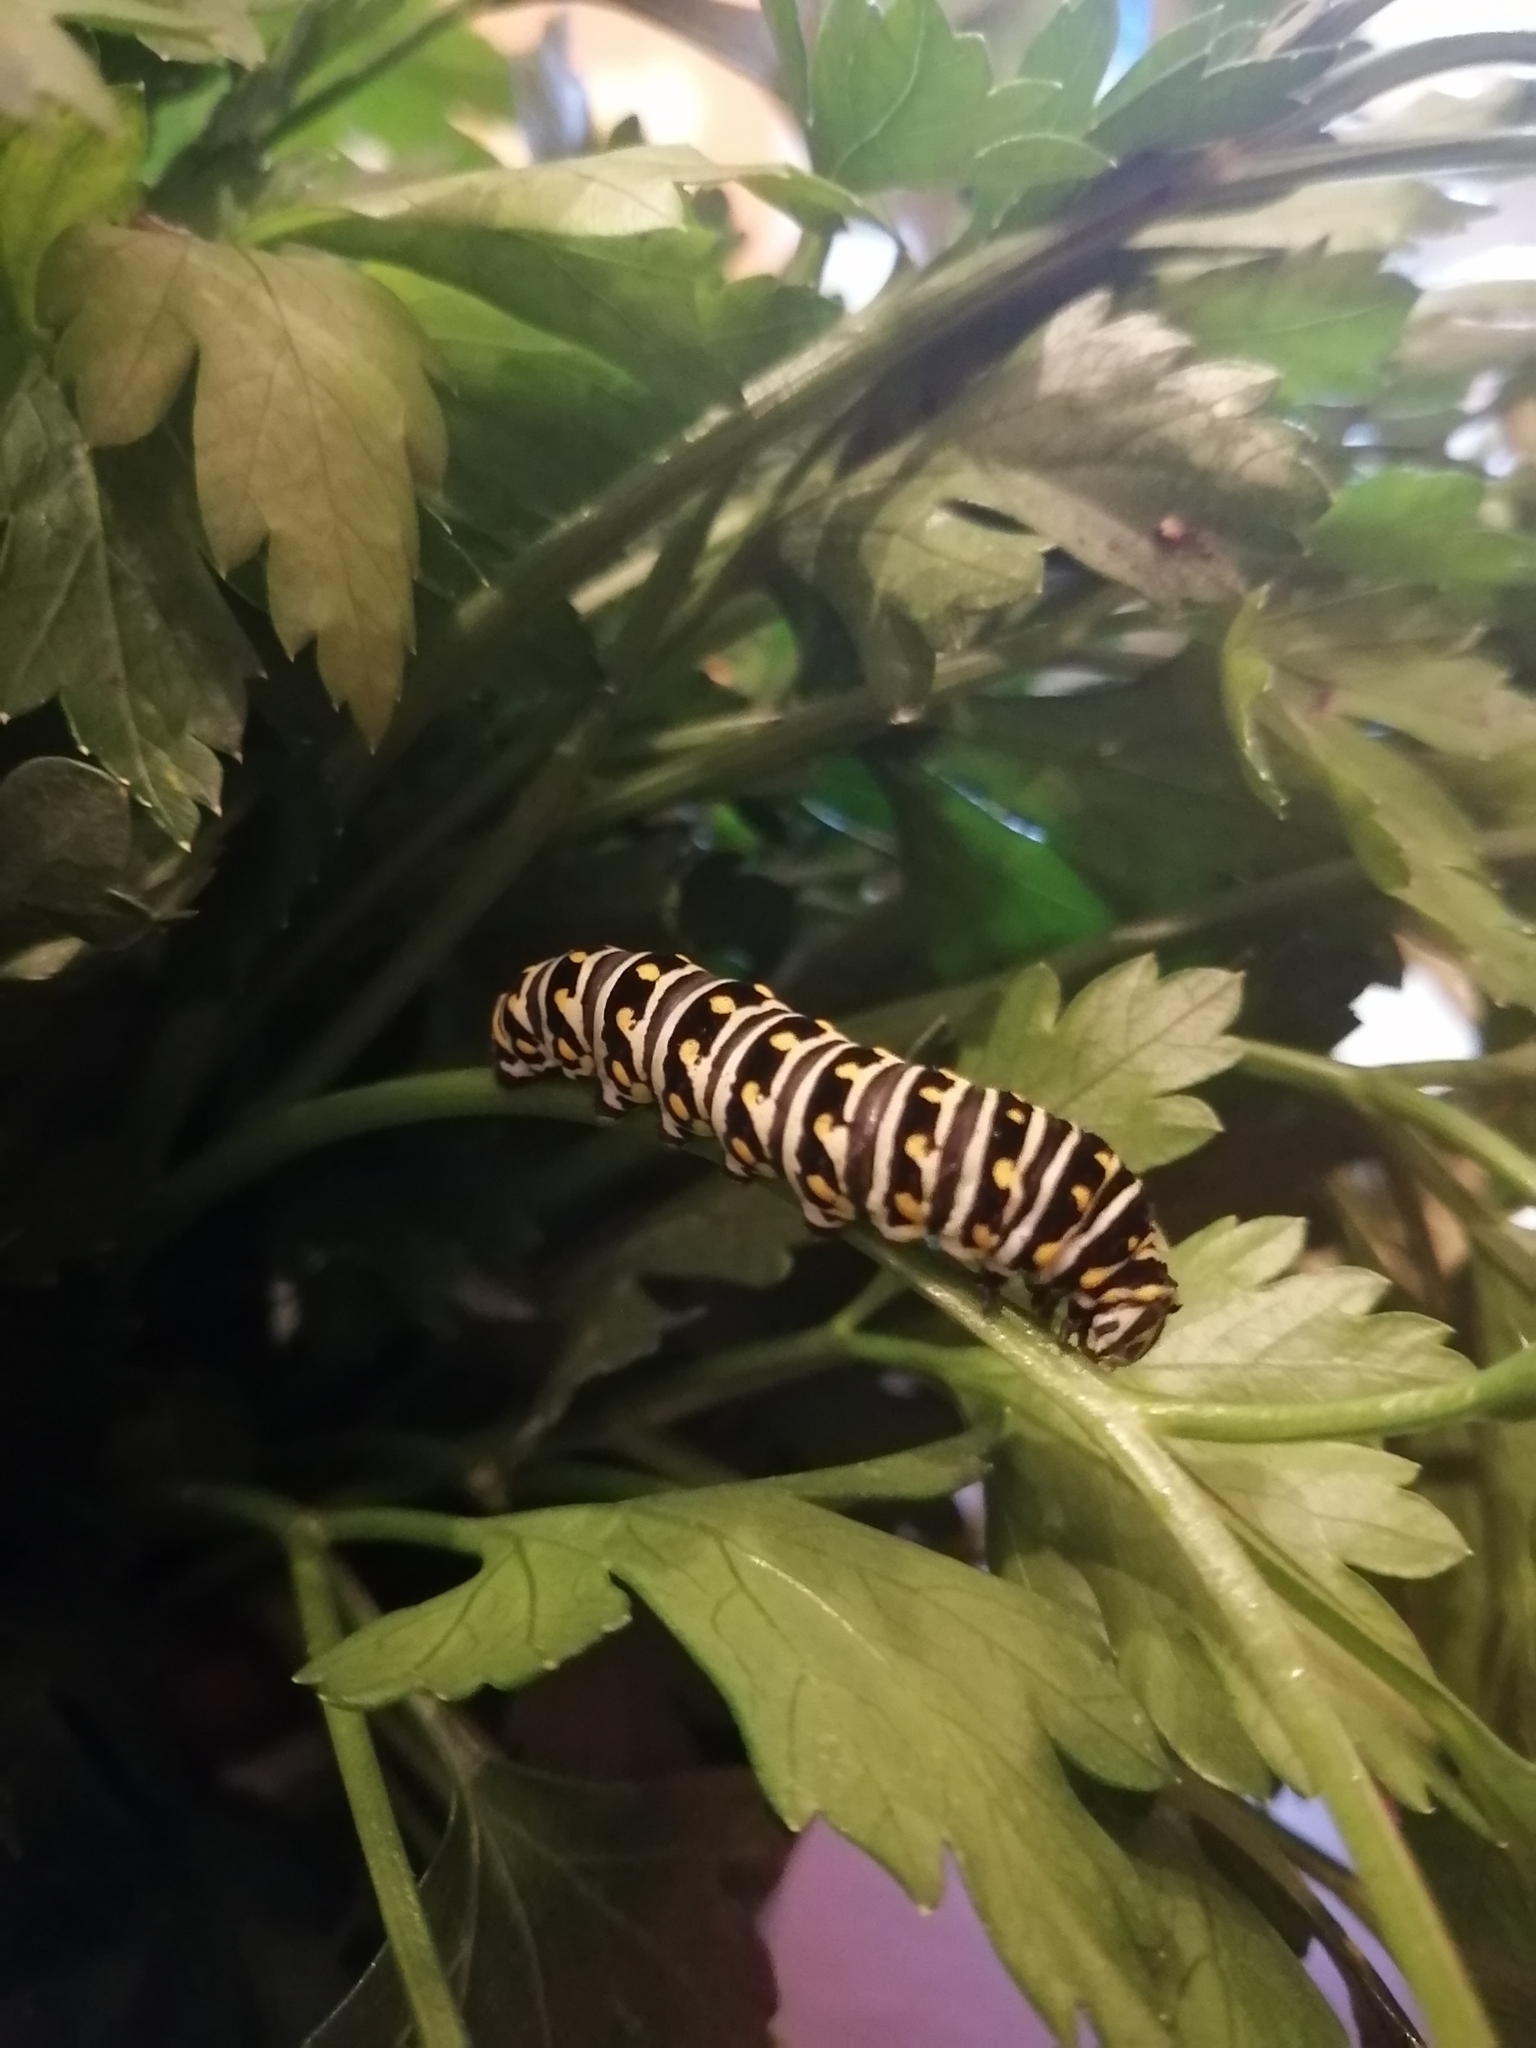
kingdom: Animalia
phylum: Arthropoda
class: Insecta
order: Lepidoptera
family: Papilionidae
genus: Papilio
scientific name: Papilio polyxenes
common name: Black swallowtail
